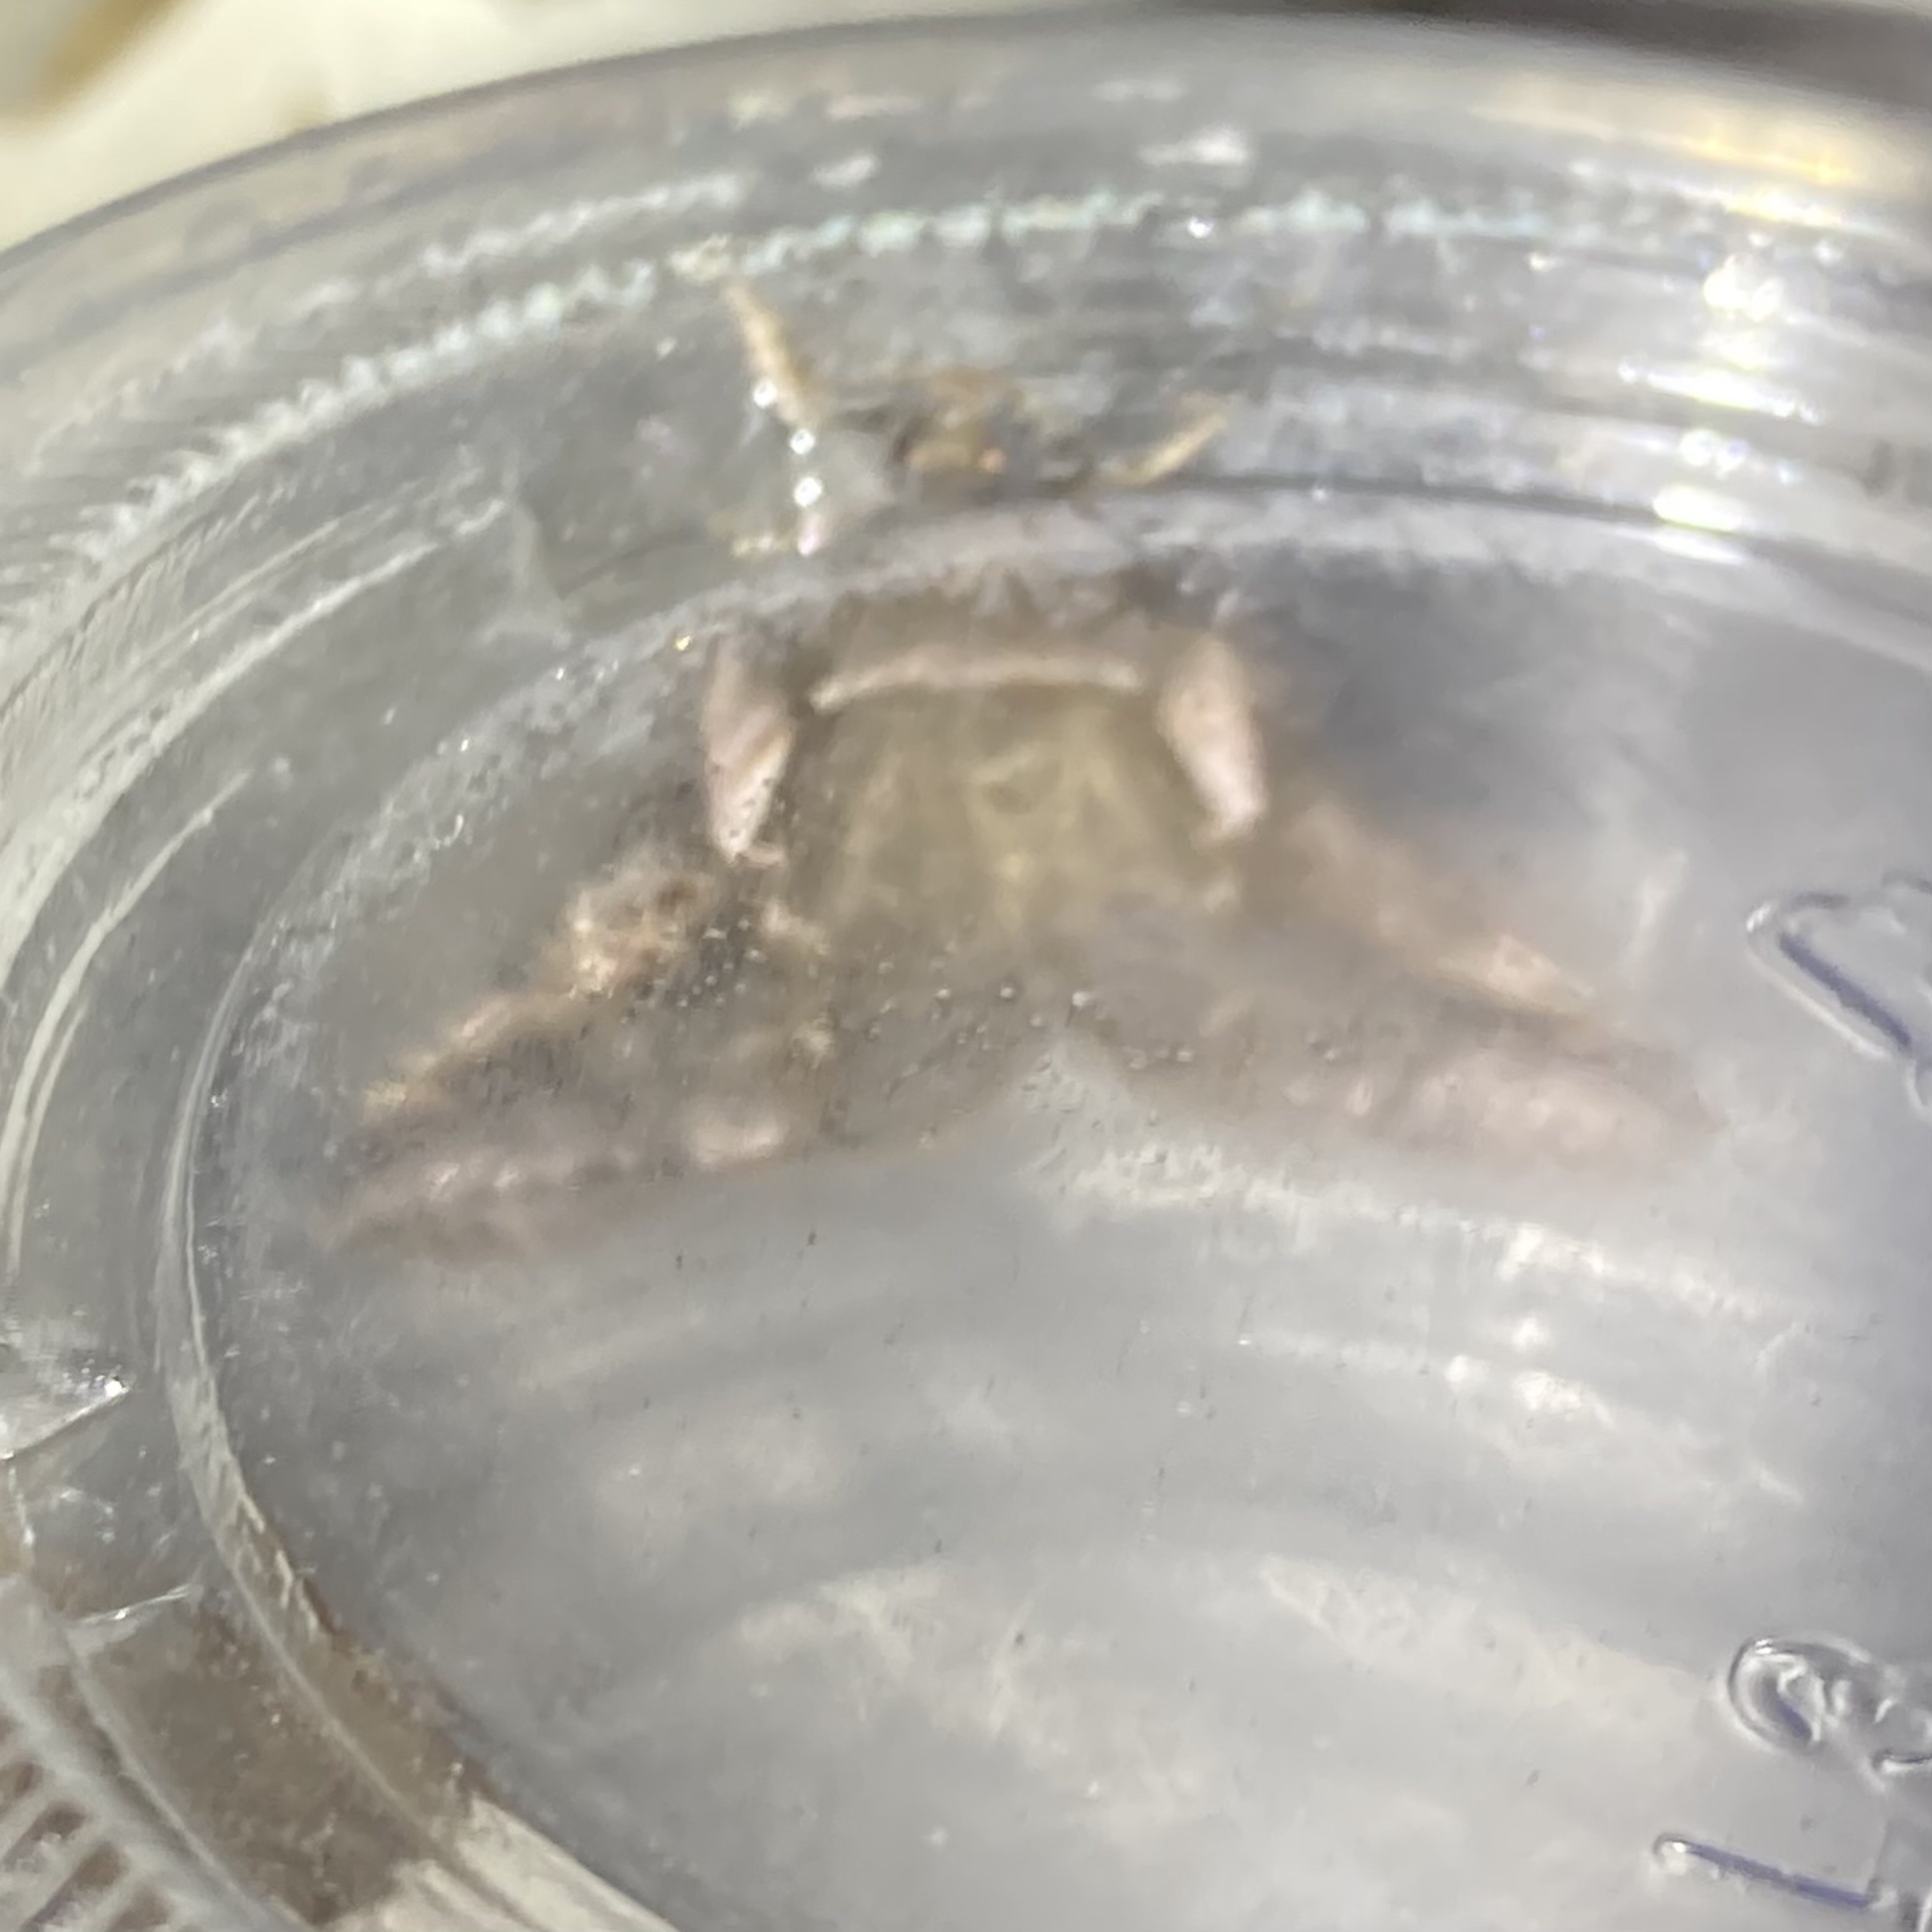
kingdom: Animalia
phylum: Arthropoda
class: Insecta
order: Lepidoptera
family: Drepanidae
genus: Habrosyne
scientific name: Habrosyne gloriosa
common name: Glorious habrosyne moth
